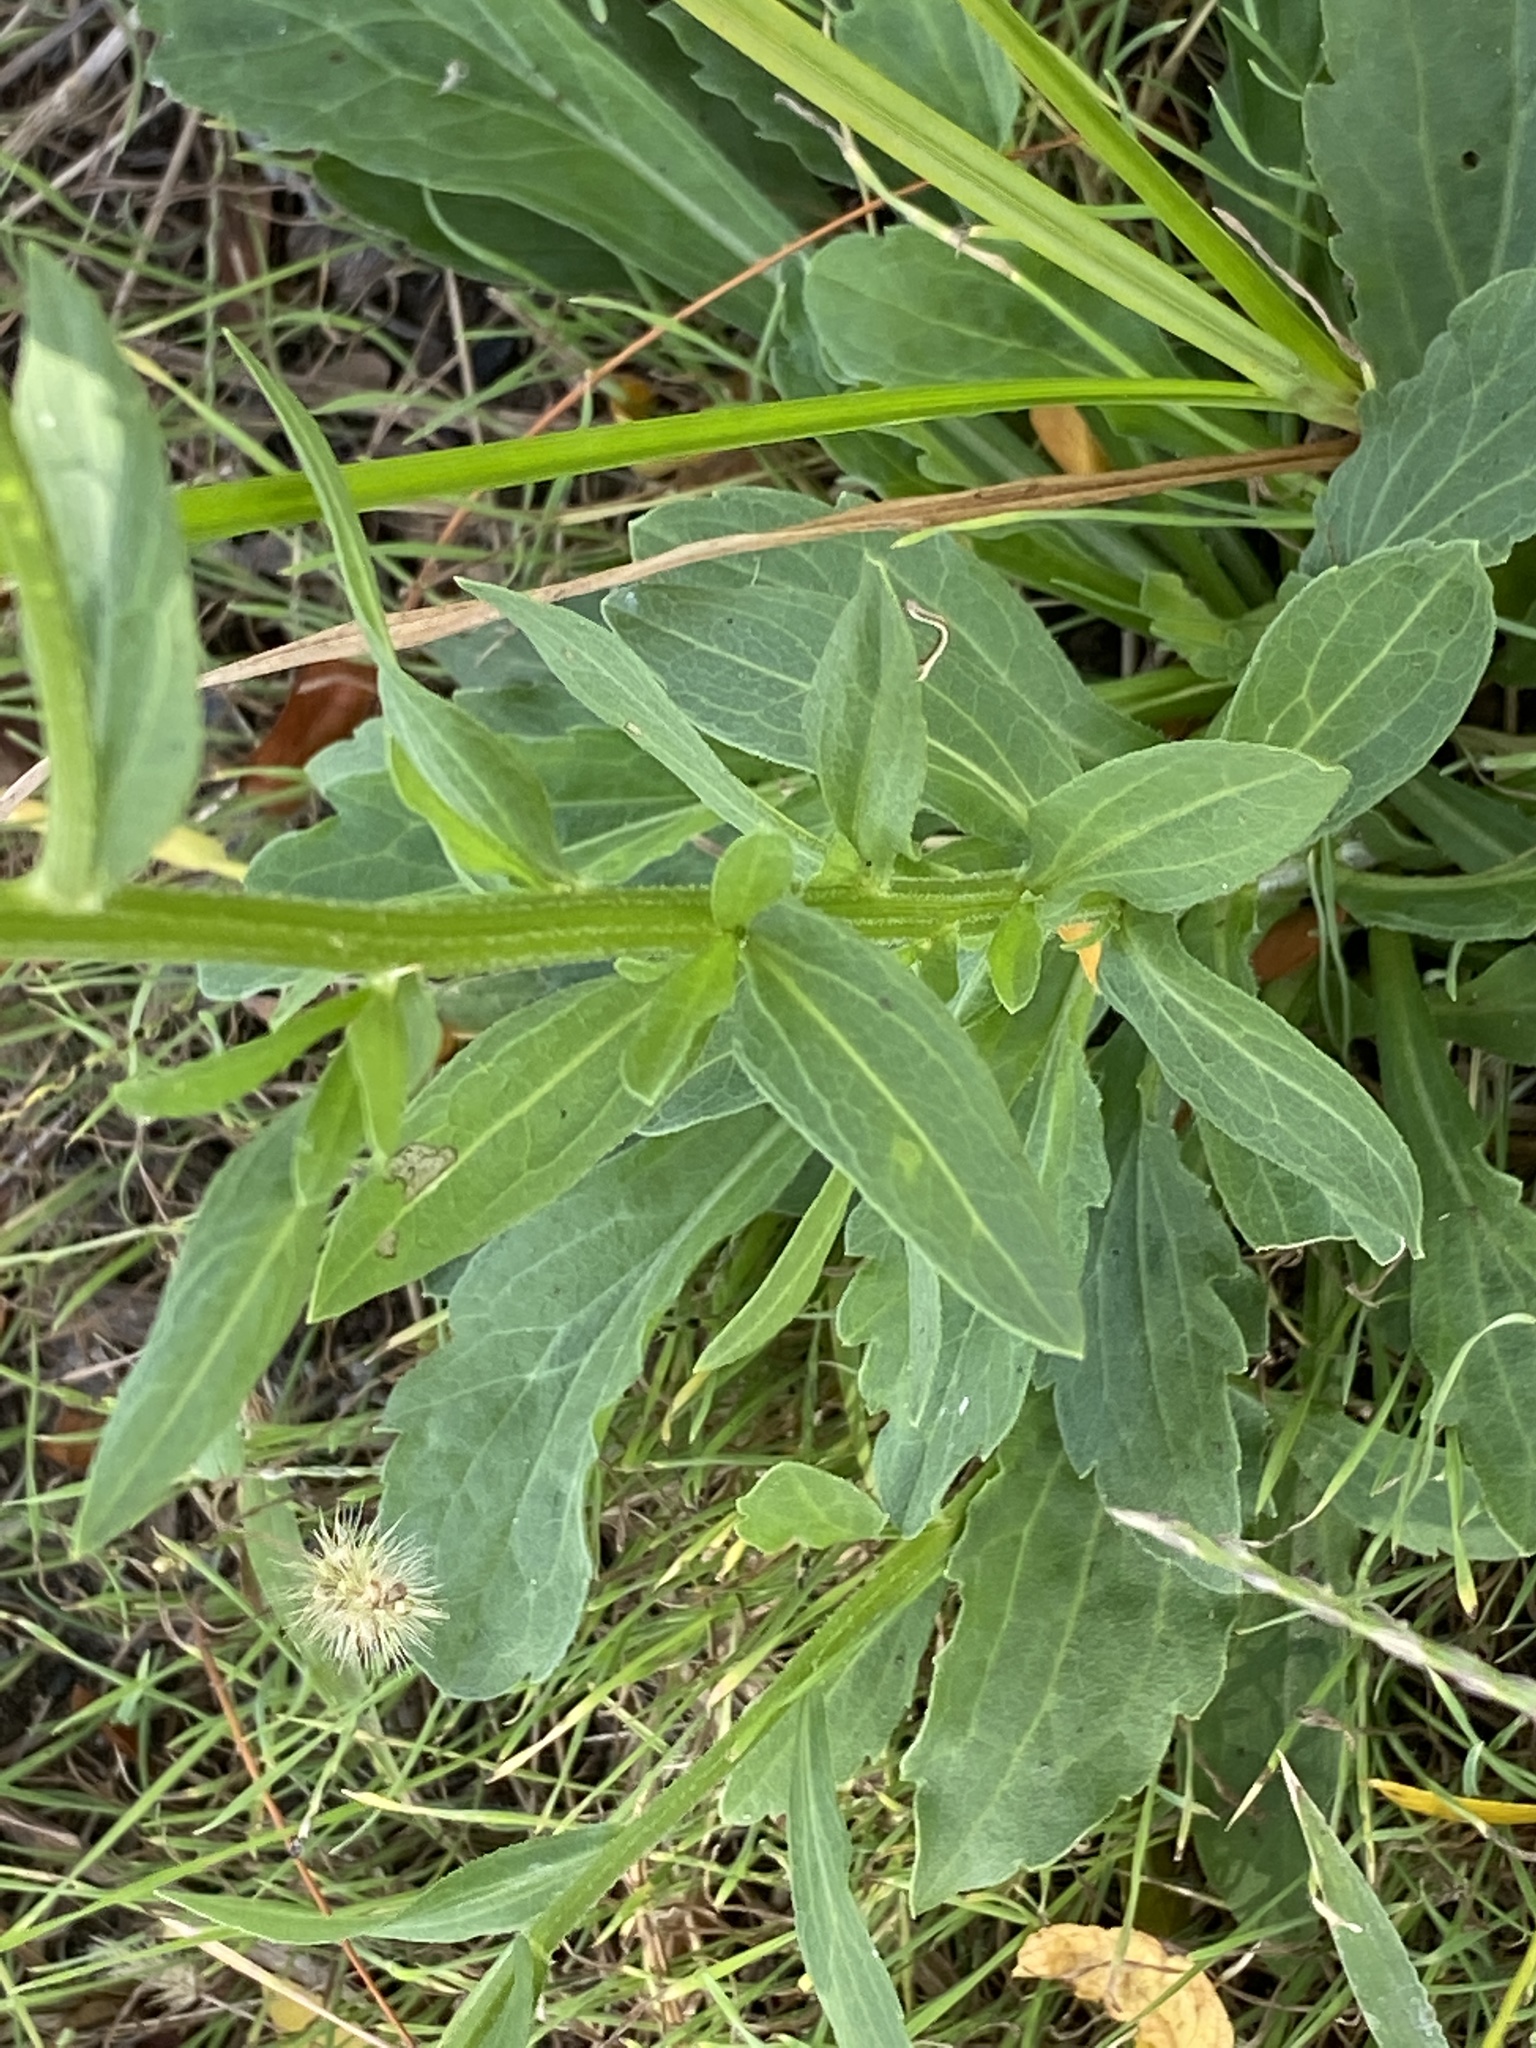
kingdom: Plantae
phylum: Tracheophyta
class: Magnoliopsida
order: Asterales
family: Asteraceae
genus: Erigeron
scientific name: Erigeron annuus
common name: Tall fleabane
